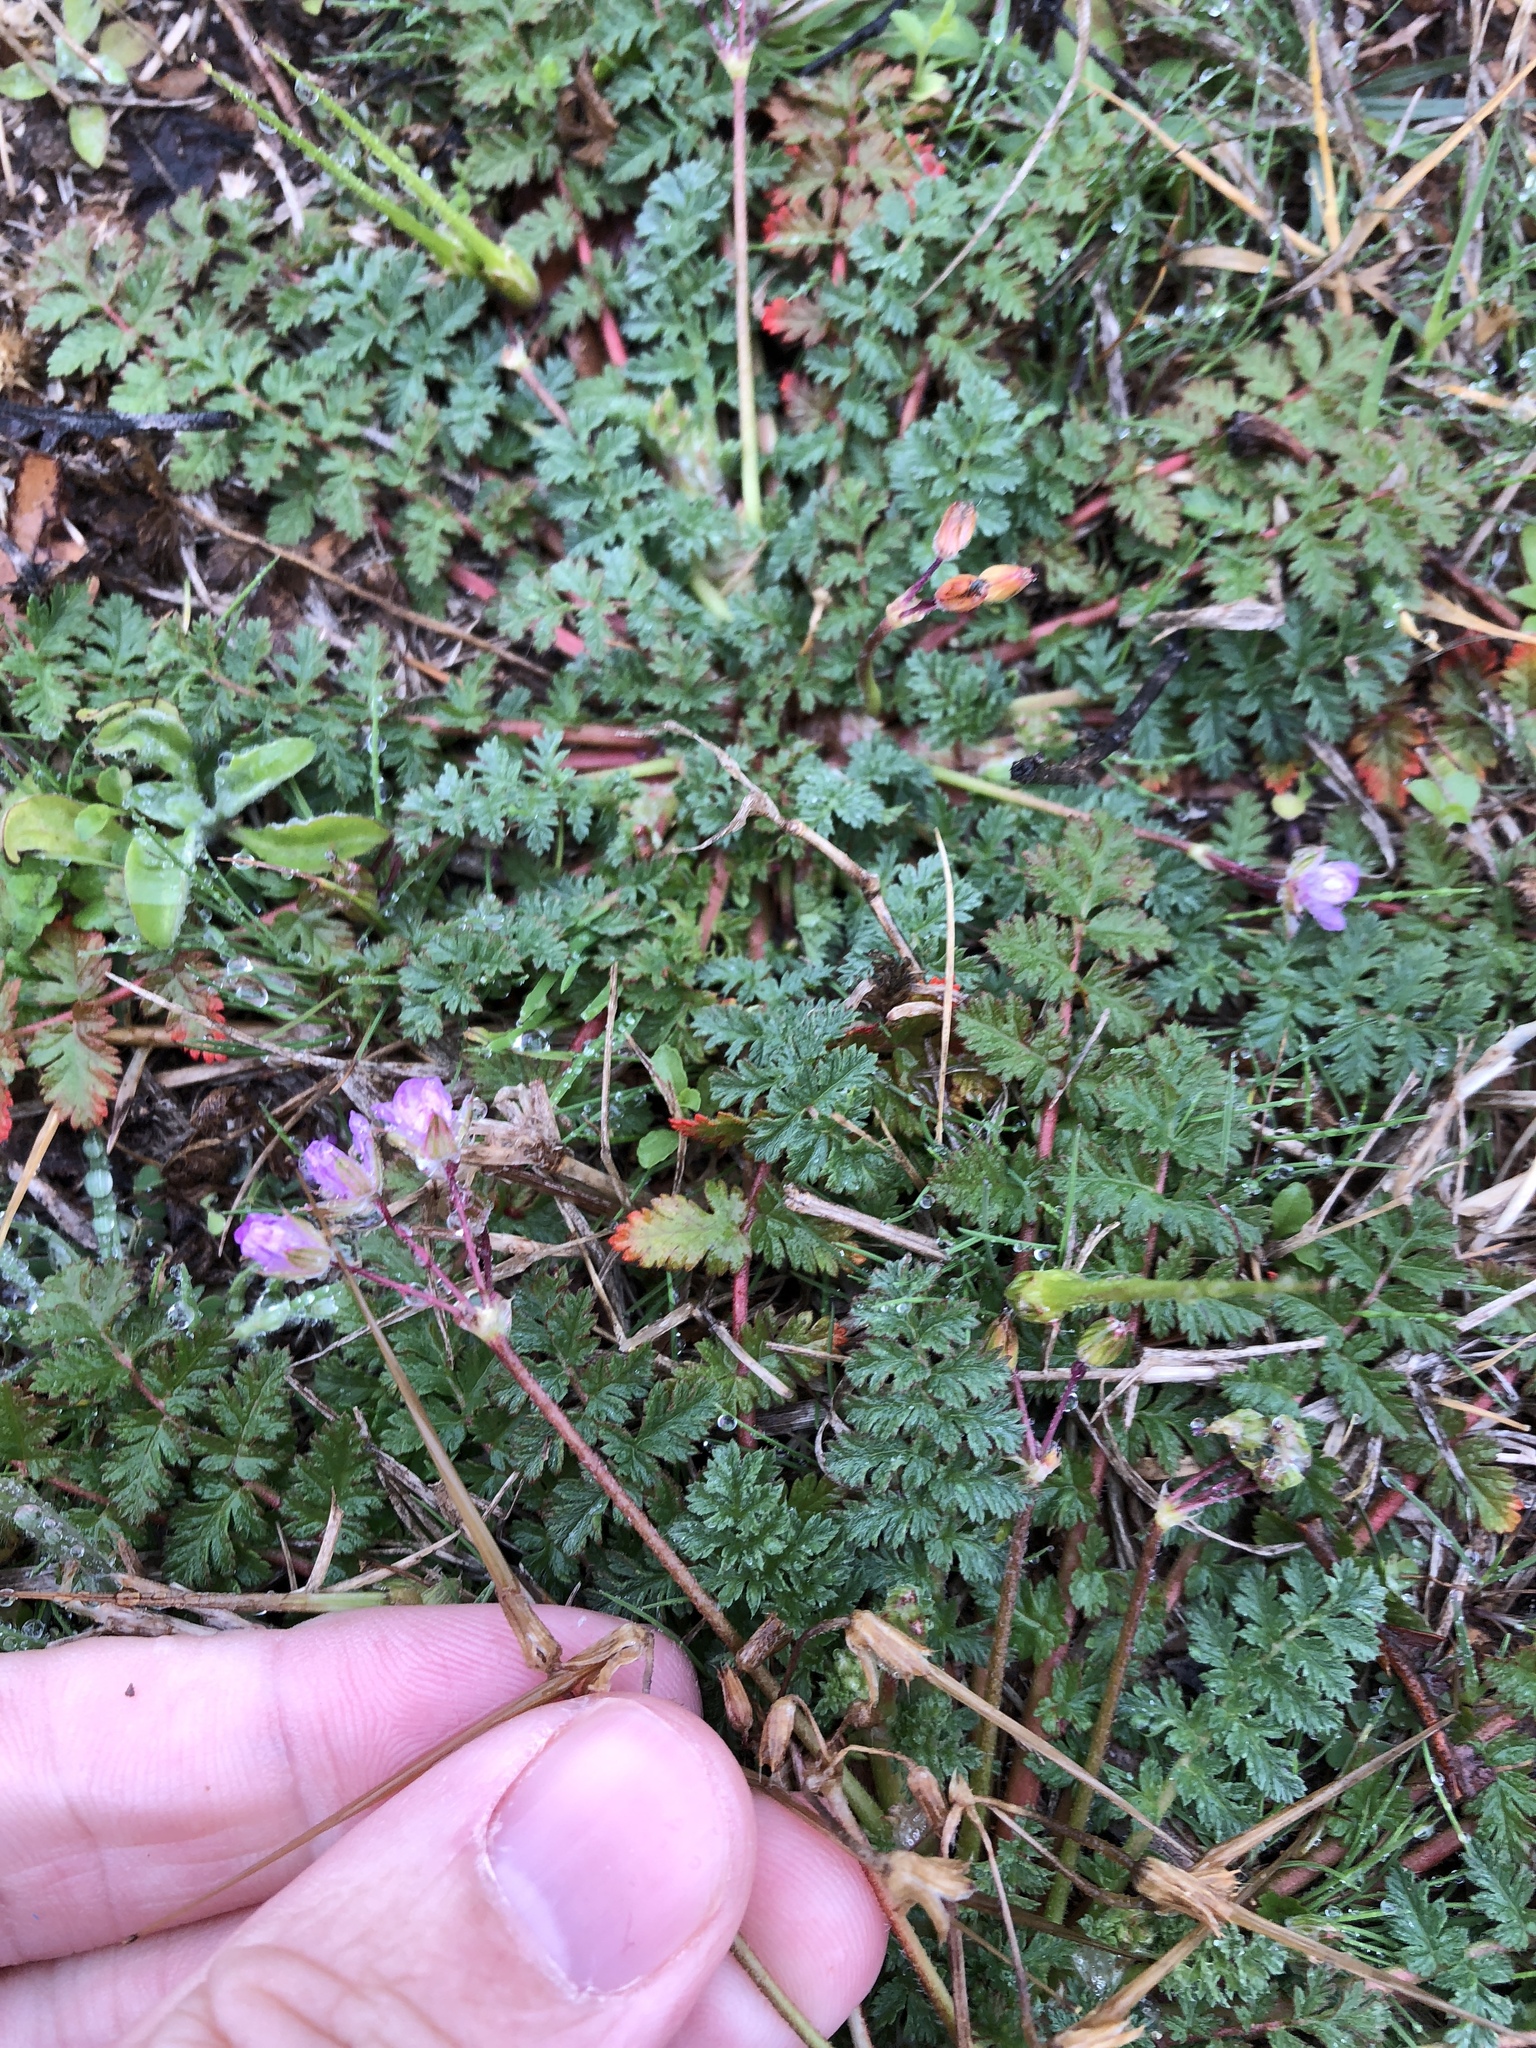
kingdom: Plantae
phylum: Tracheophyta
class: Magnoliopsida
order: Geraniales
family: Geraniaceae
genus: Erodium
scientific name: Erodium cicutarium
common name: Common stork's-bill
